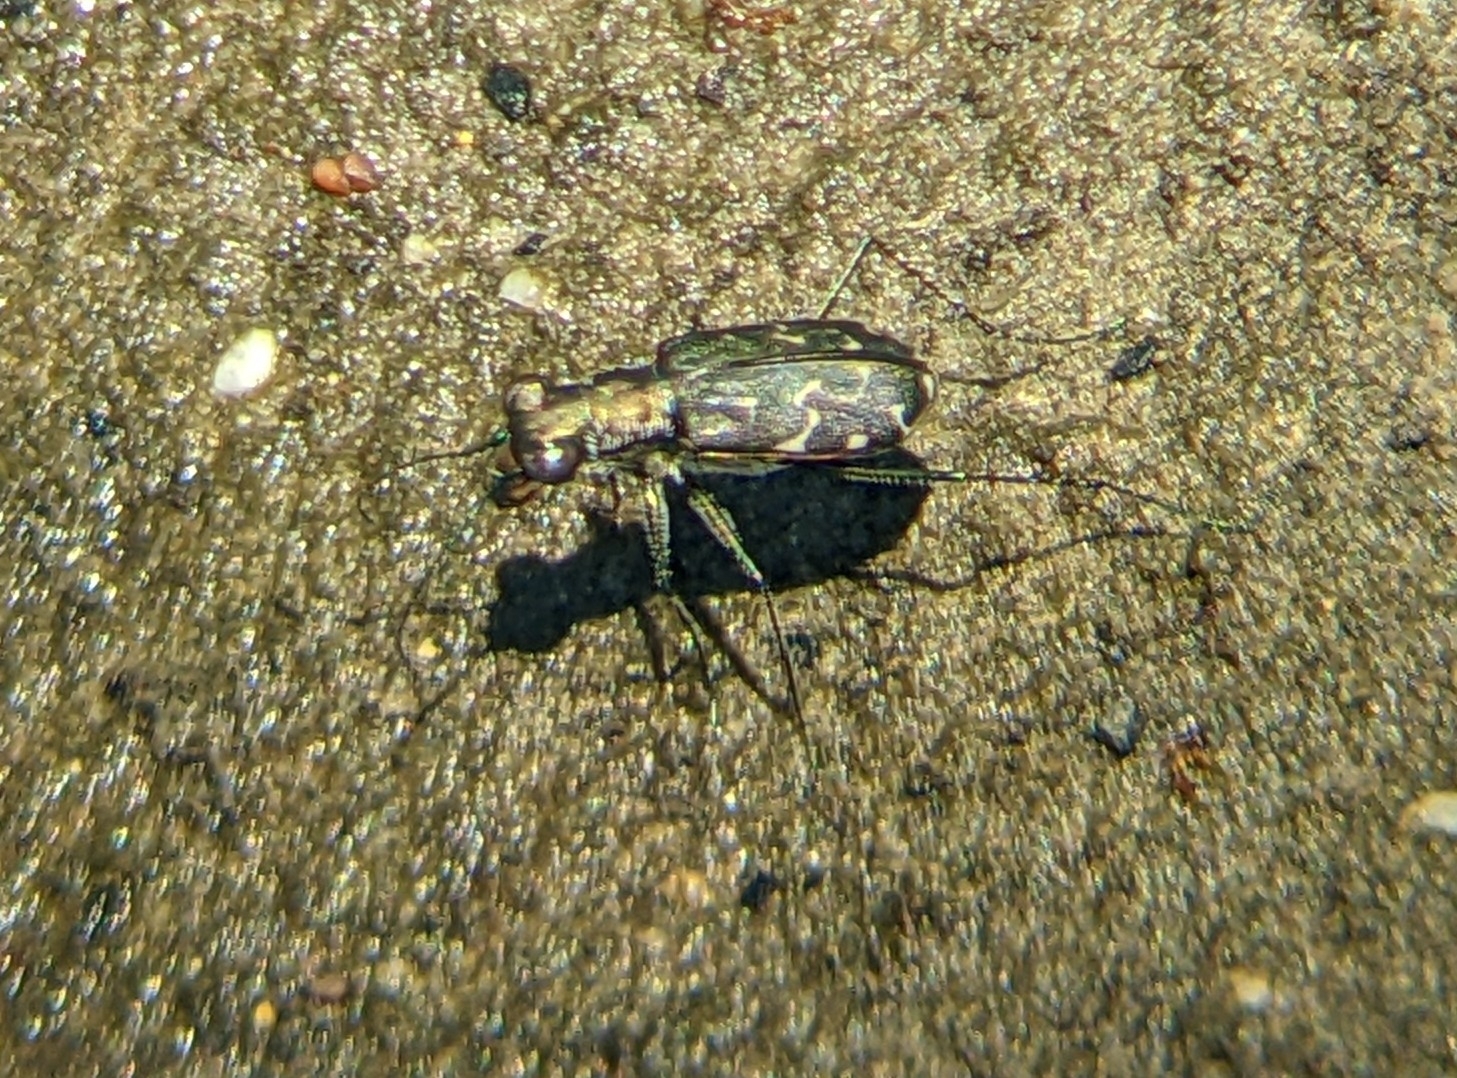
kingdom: Animalia
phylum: Arthropoda
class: Insecta
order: Coleoptera
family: Carabidae
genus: Cicindela
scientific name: Cicindela trifasciata
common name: Mudflat tiger beetle
